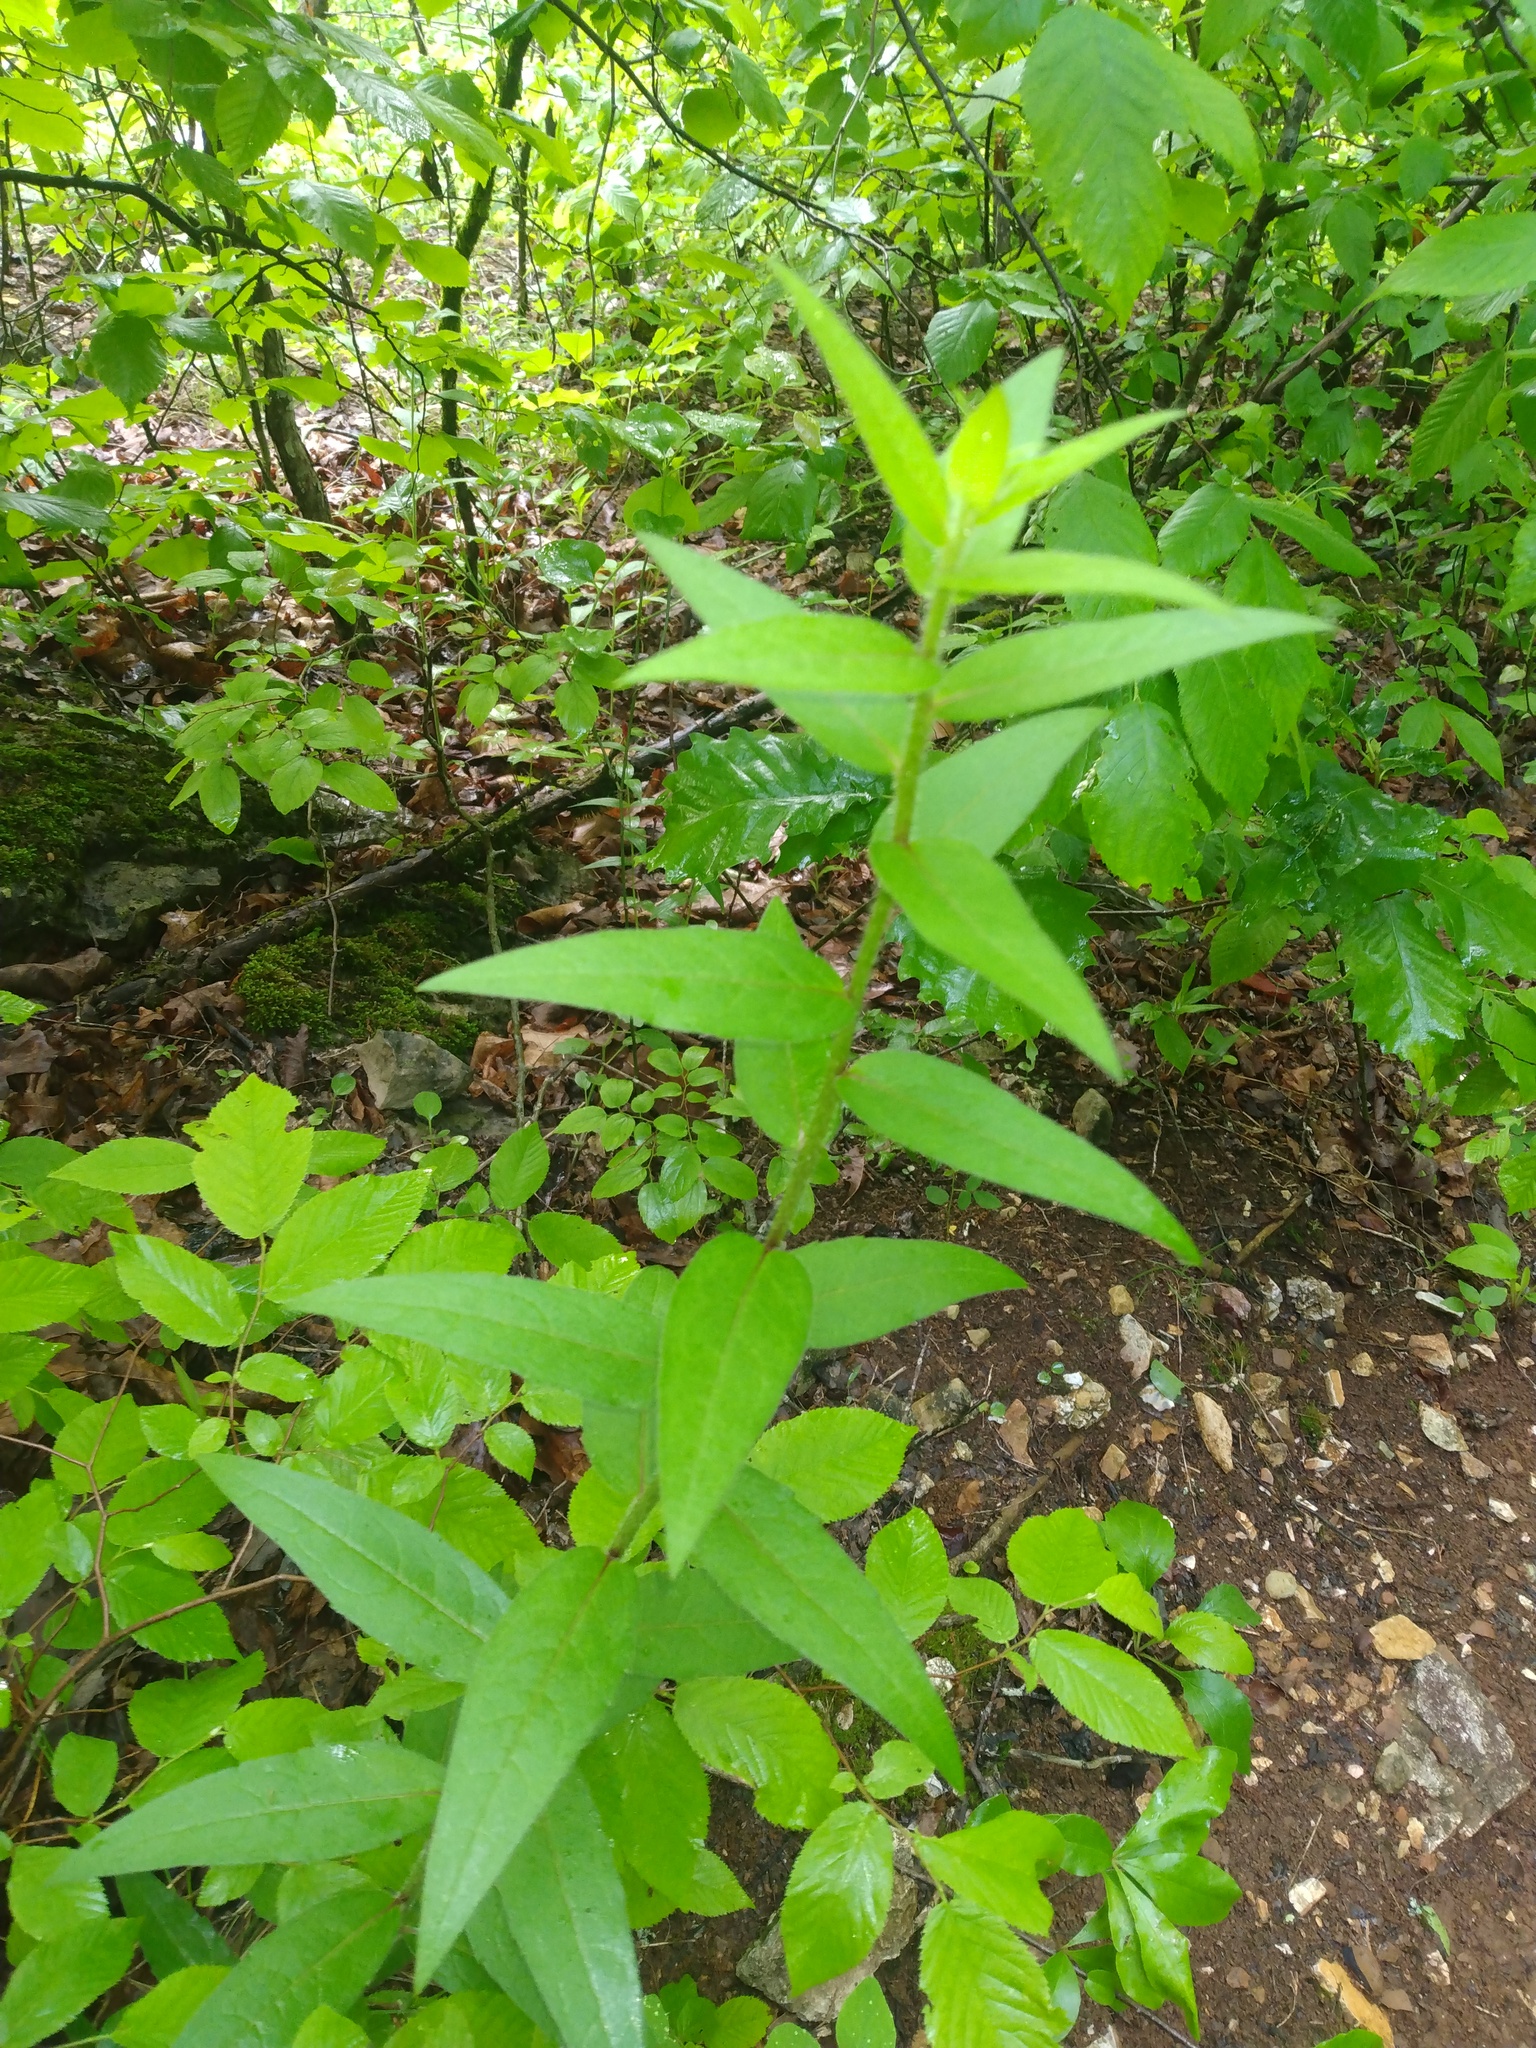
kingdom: Plantae
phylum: Tracheophyta
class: Magnoliopsida
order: Asterales
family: Asteraceae
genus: Silphium
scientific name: Silphium asperrimum
